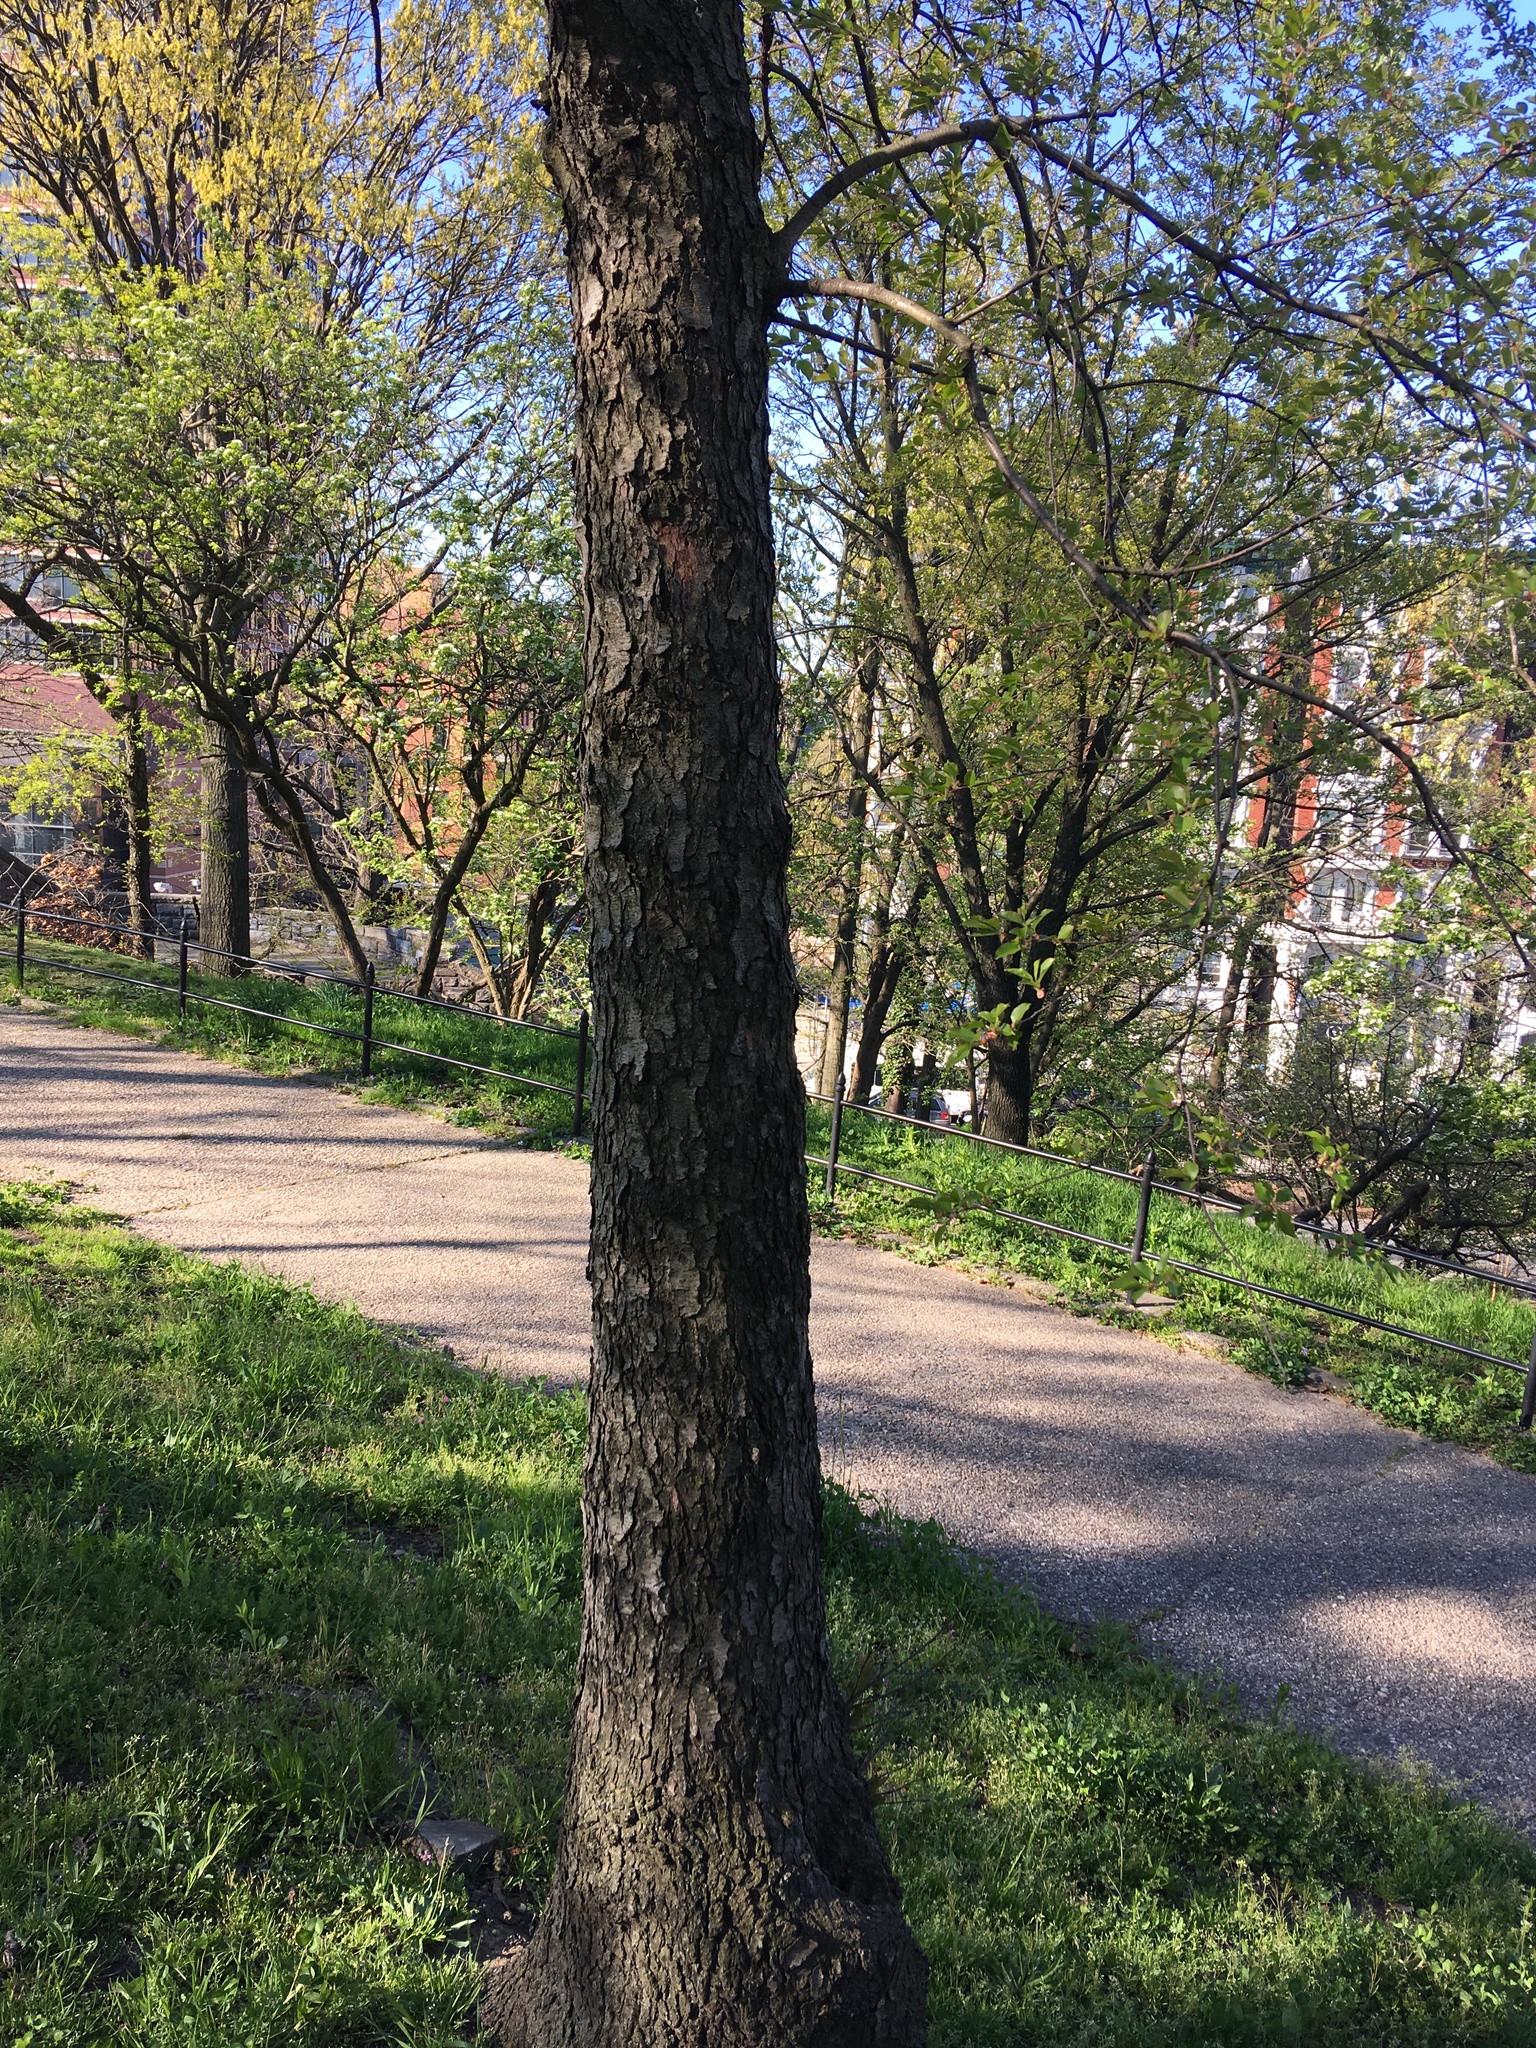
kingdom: Plantae
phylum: Tracheophyta
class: Magnoliopsida
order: Rosales
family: Rosaceae
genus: Prunus
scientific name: Prunus serotina
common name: Black cherry
